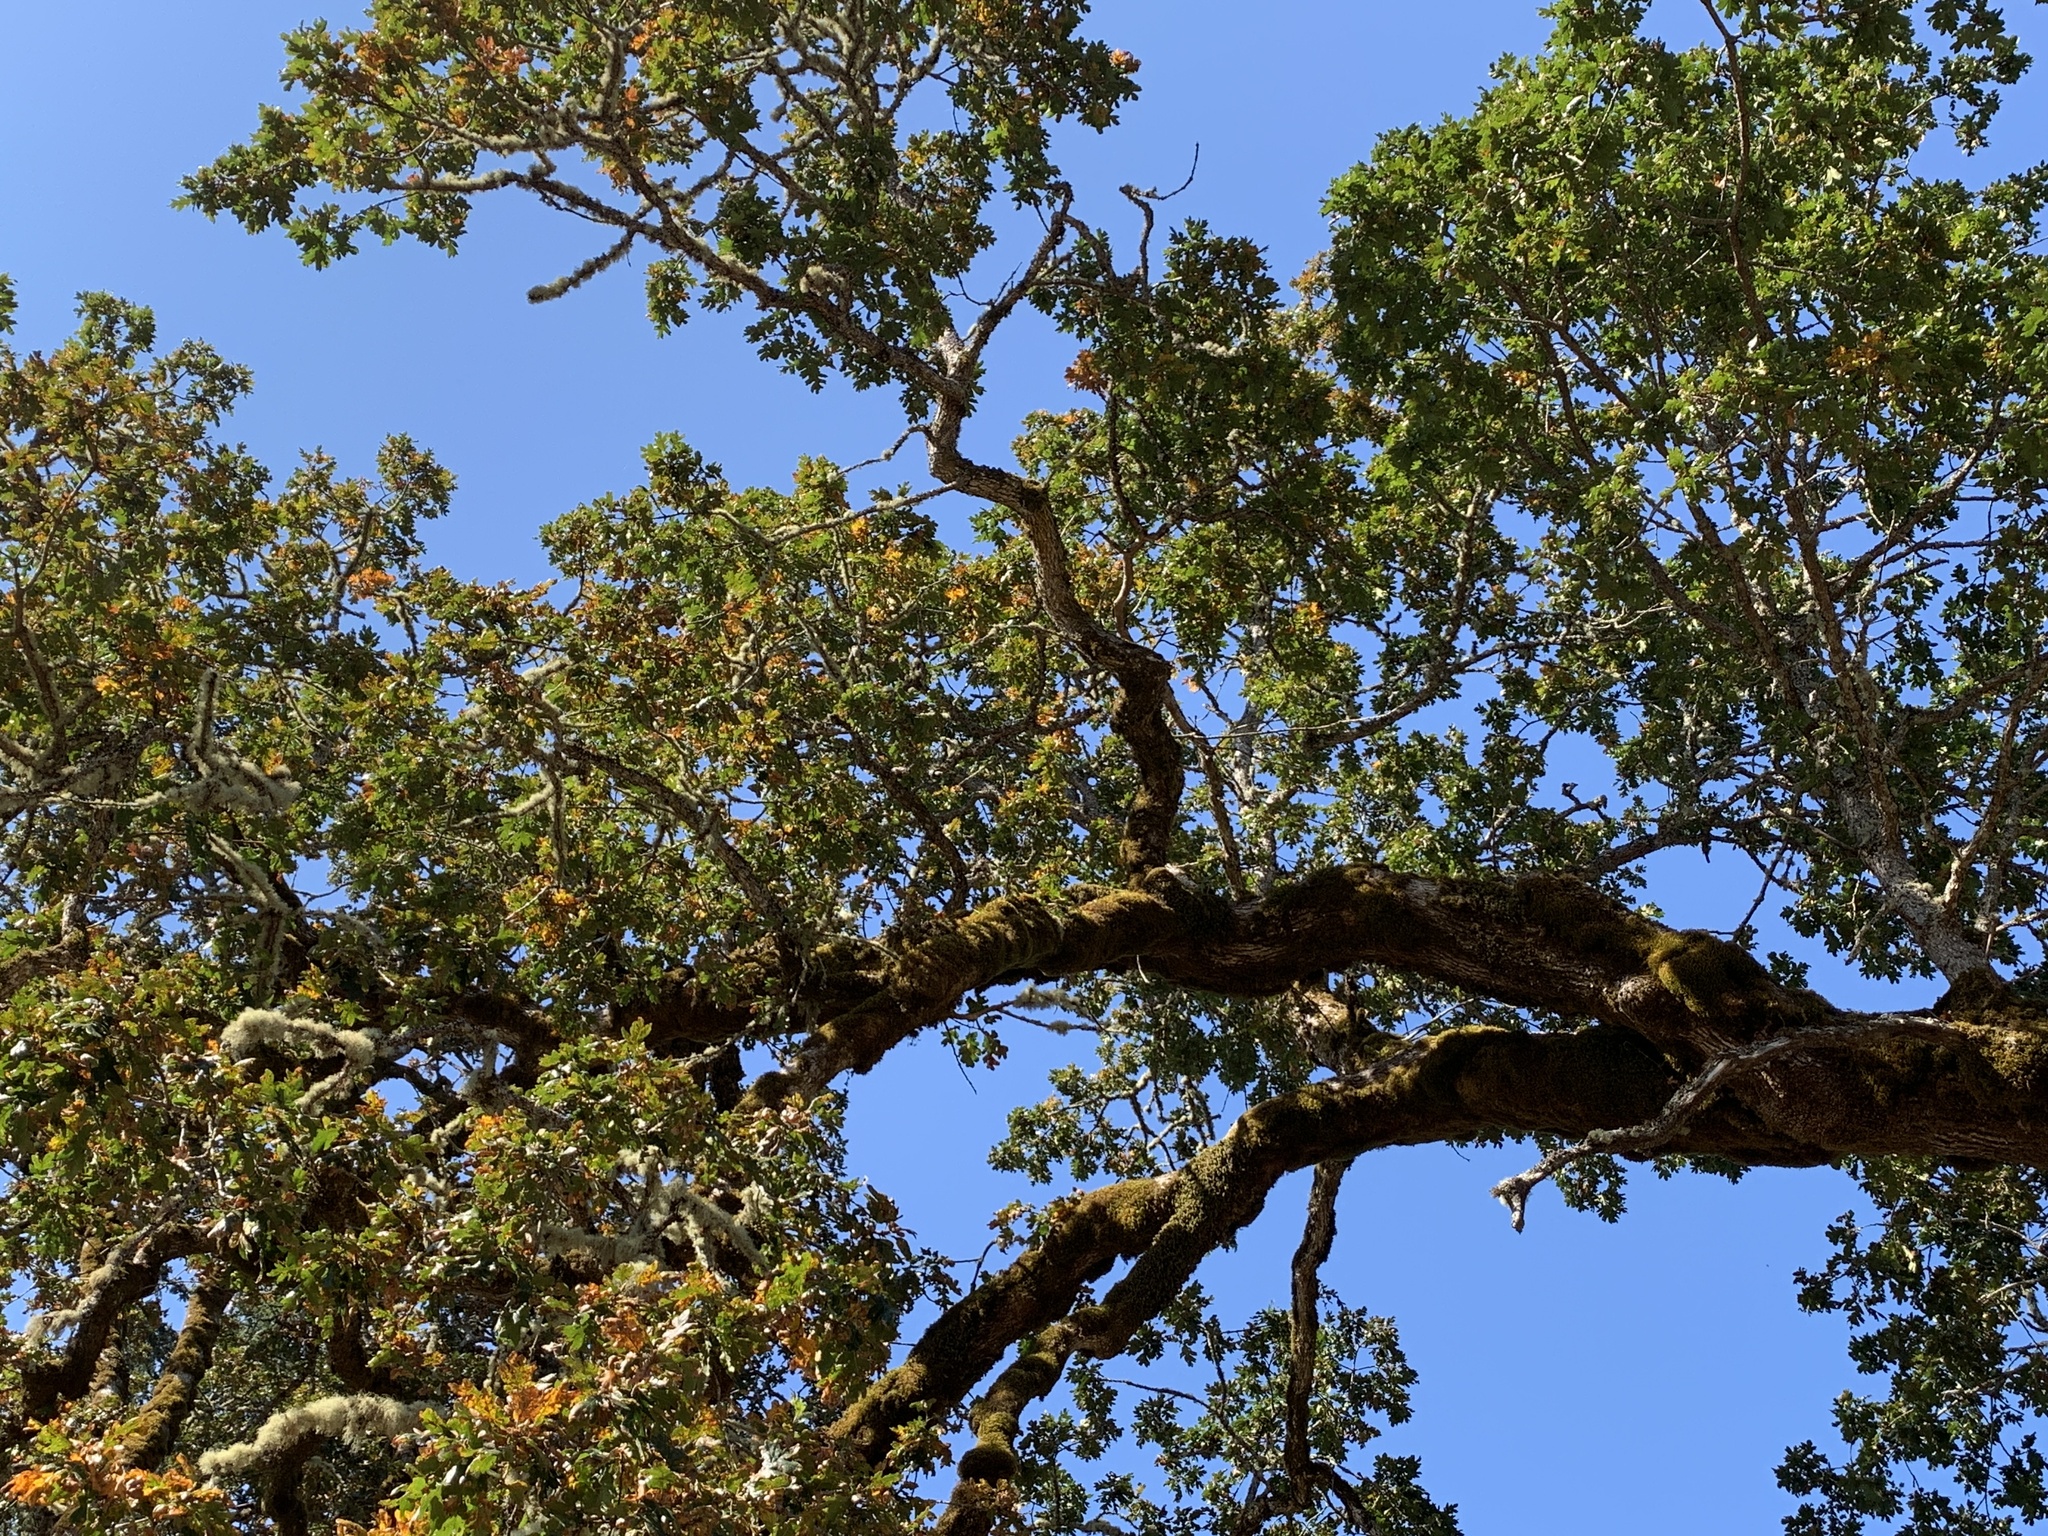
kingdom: Plantae
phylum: Tracheophyta
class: Magnoliopsida
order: Fagales
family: Fagaceae
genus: Quercus
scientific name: Quercus garryana
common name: Garry oak
